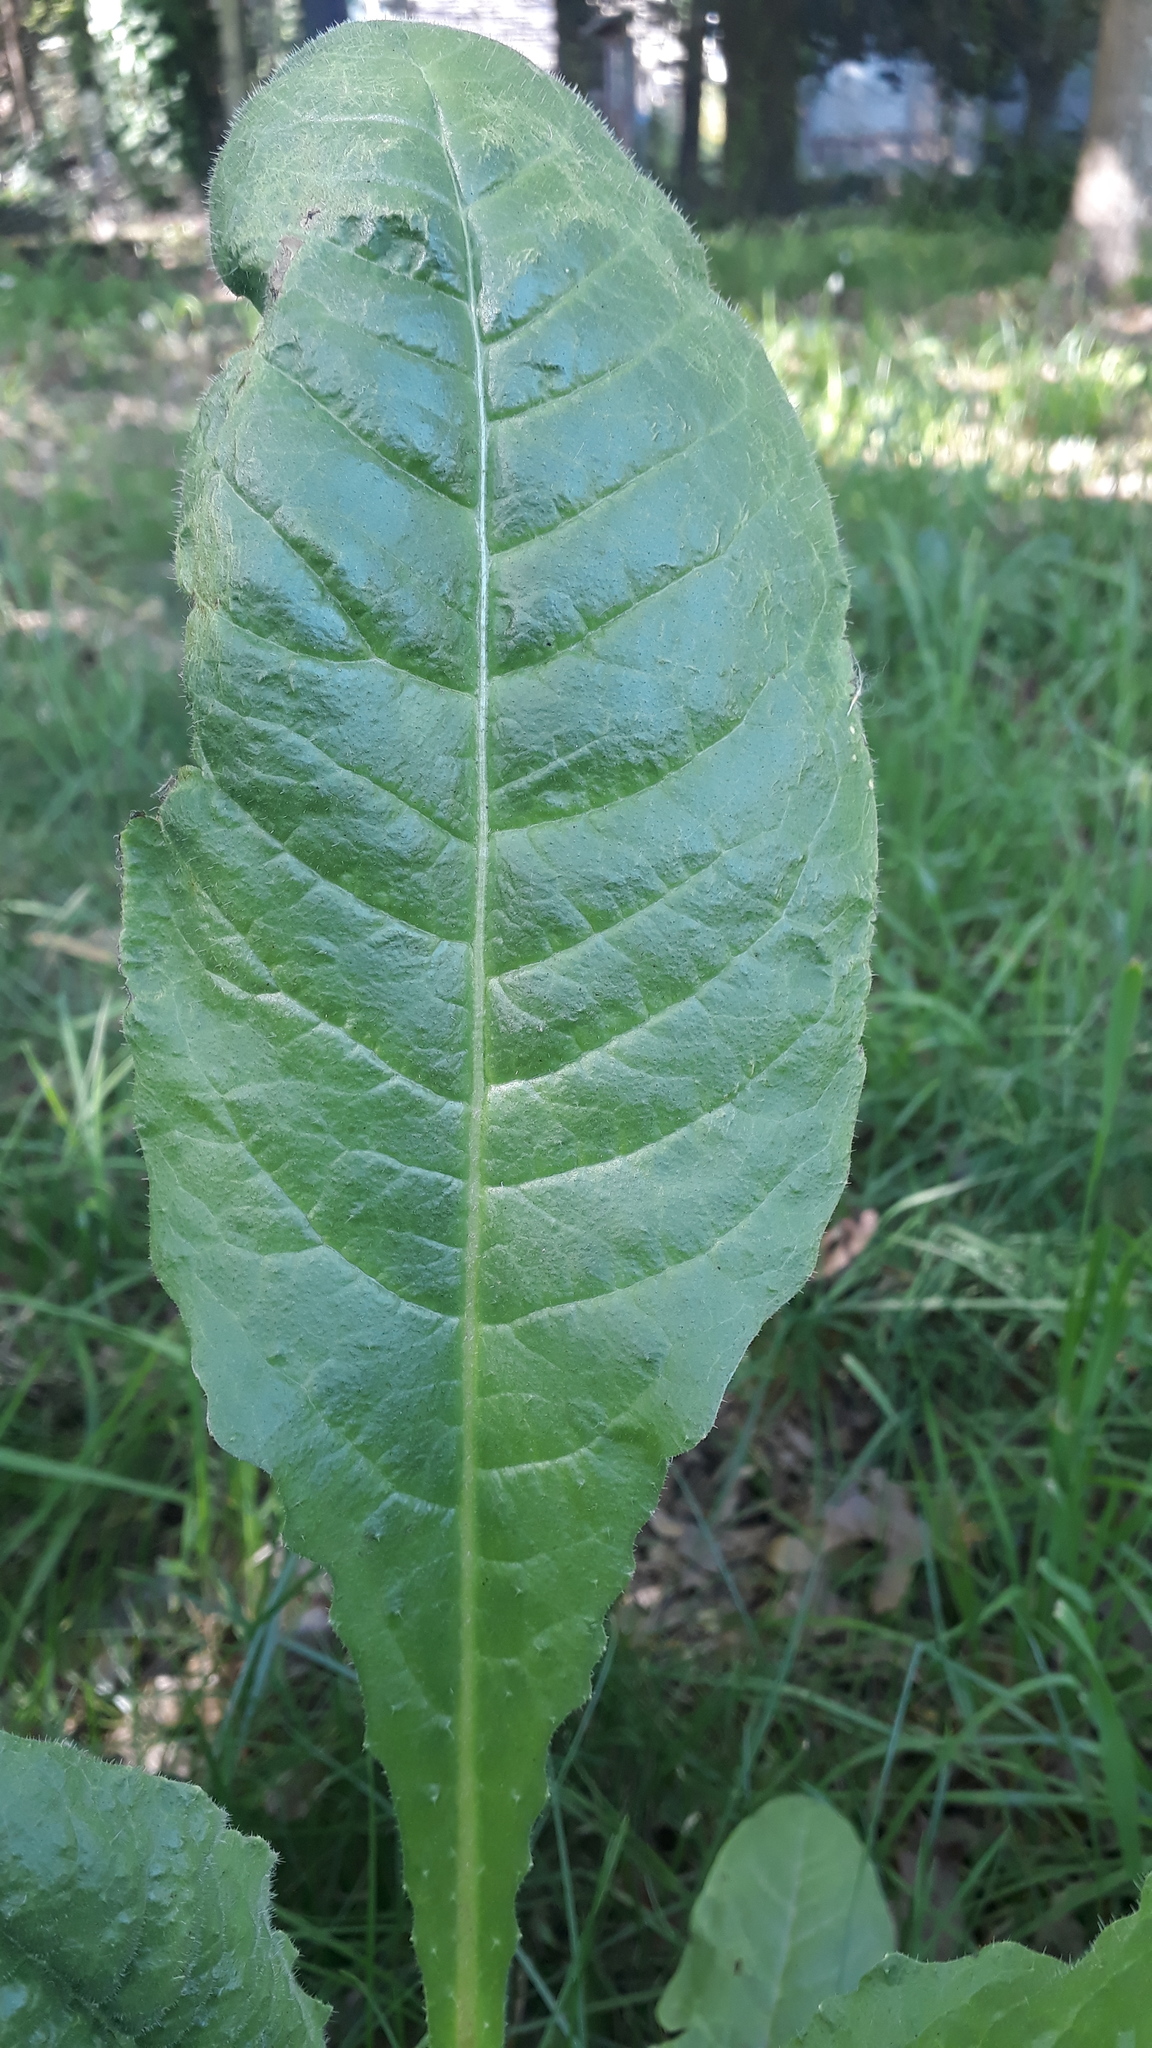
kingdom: Plantae
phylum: Tracheophyta
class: Magnoliopsida
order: Asterales
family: Asteraceae
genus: Helminthotheca
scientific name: Helminthotheca echioides
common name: Ox-tongue
